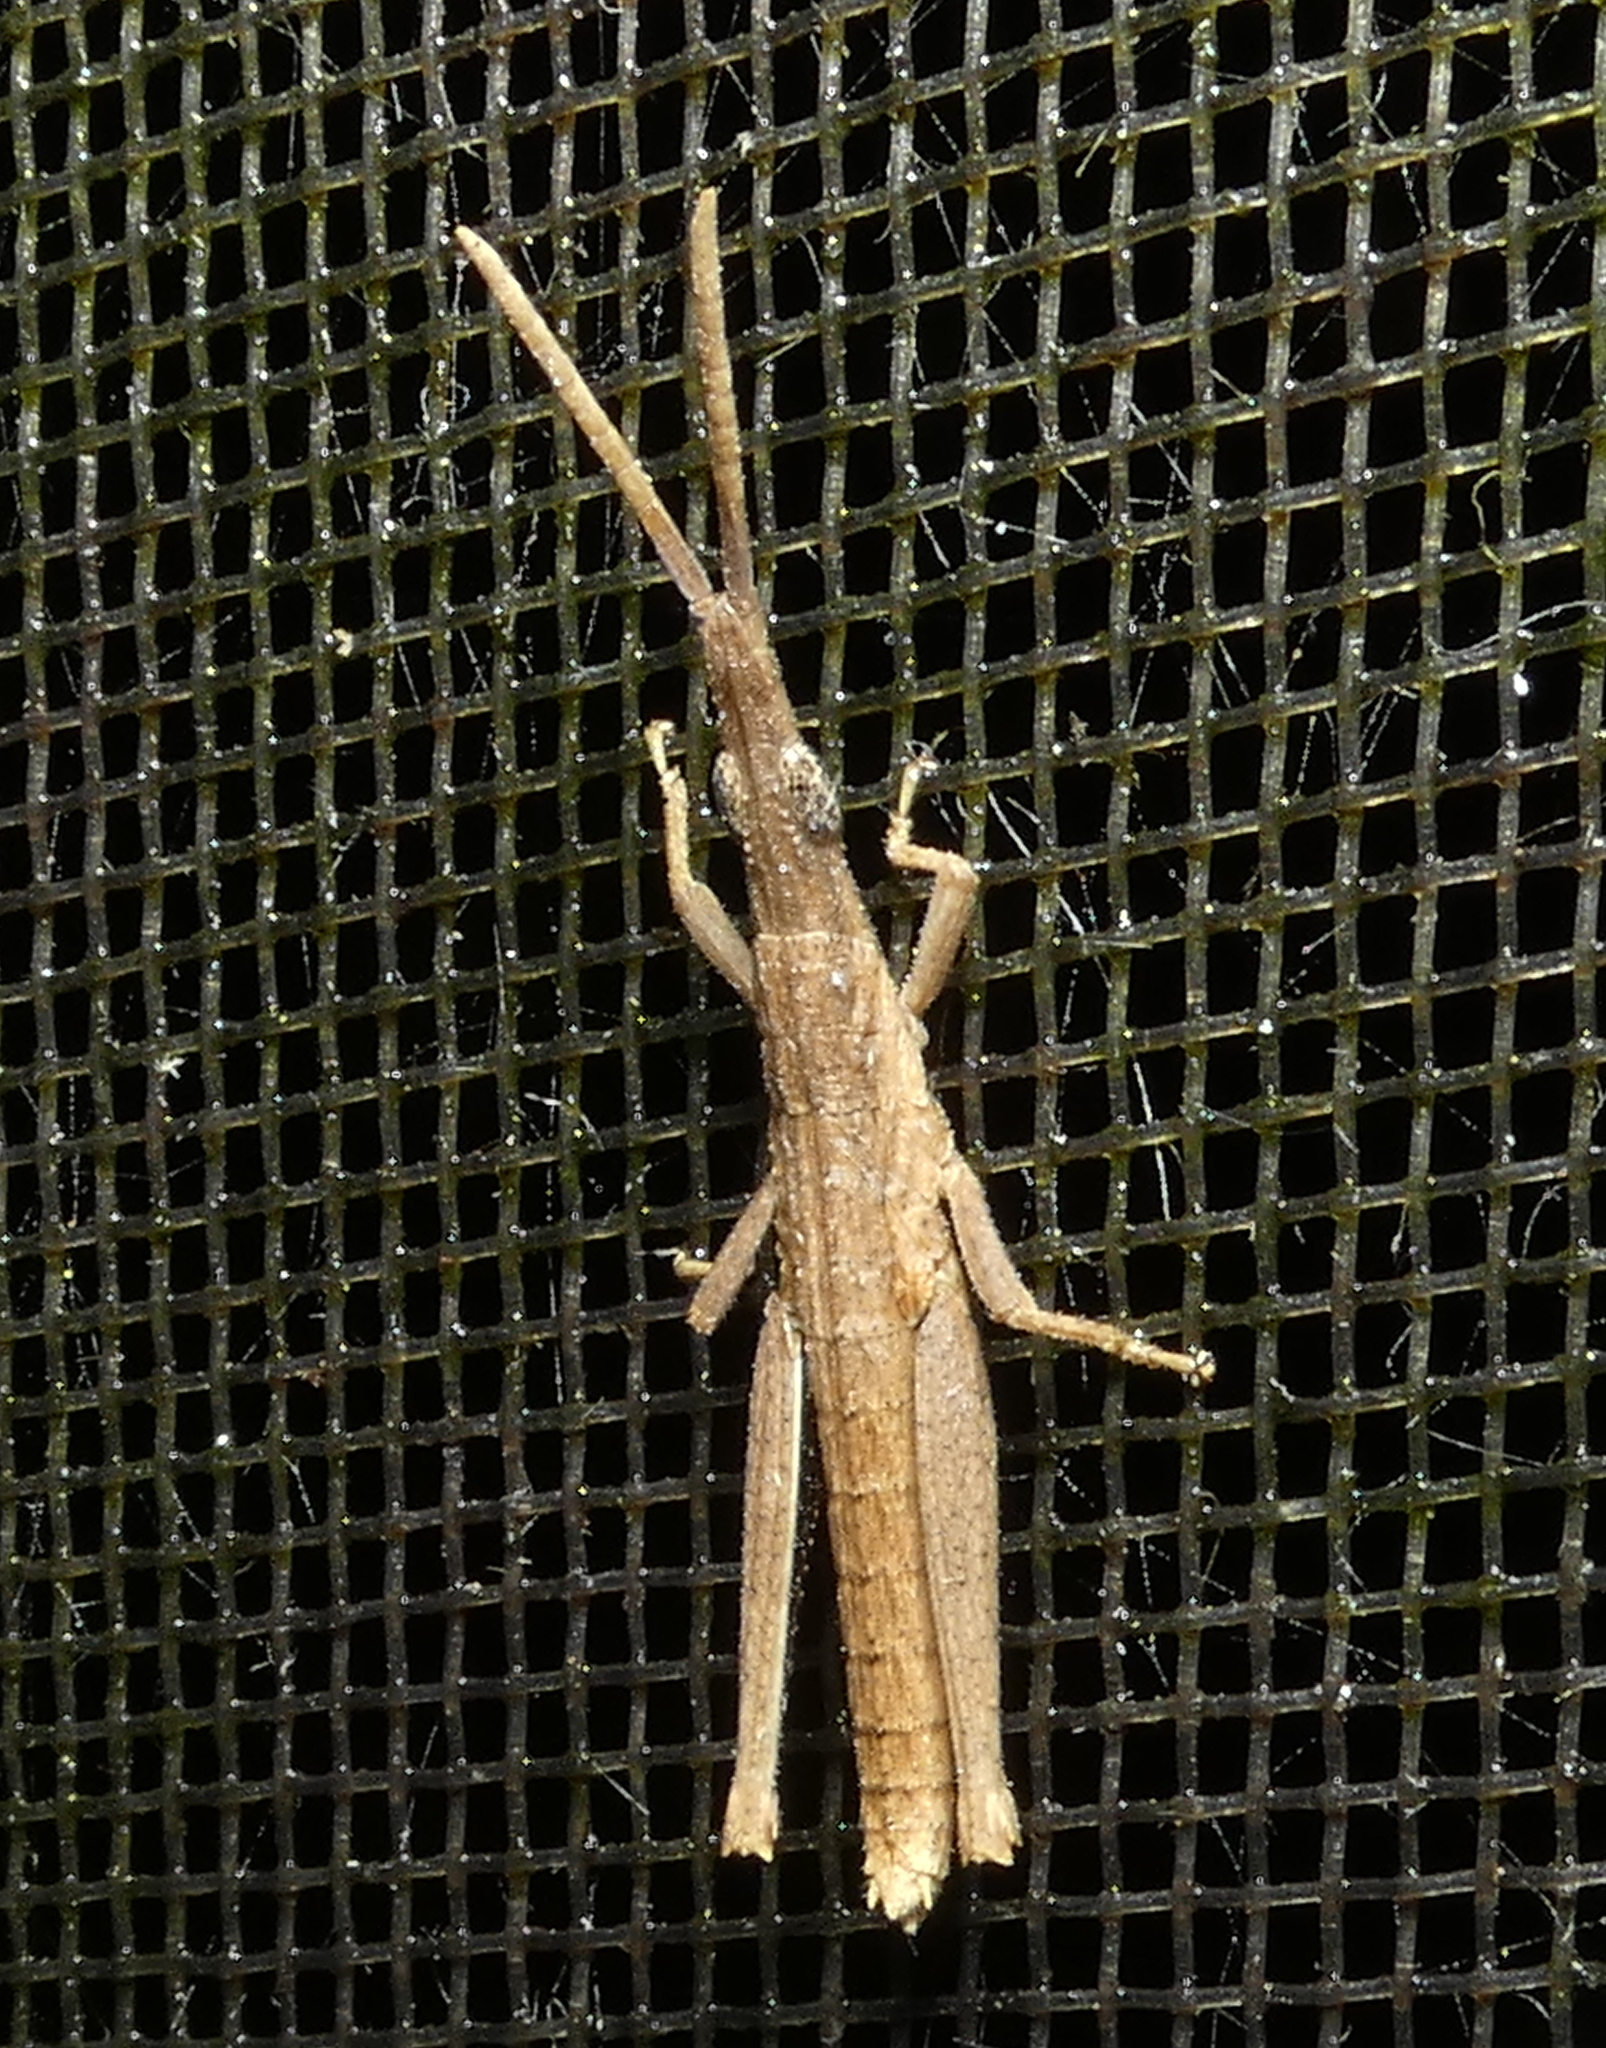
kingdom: Animalia
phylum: Arthropoda
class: Insecta
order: Orthoptera
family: Pyrgomorphidae
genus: Algete
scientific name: Algete brunneri
